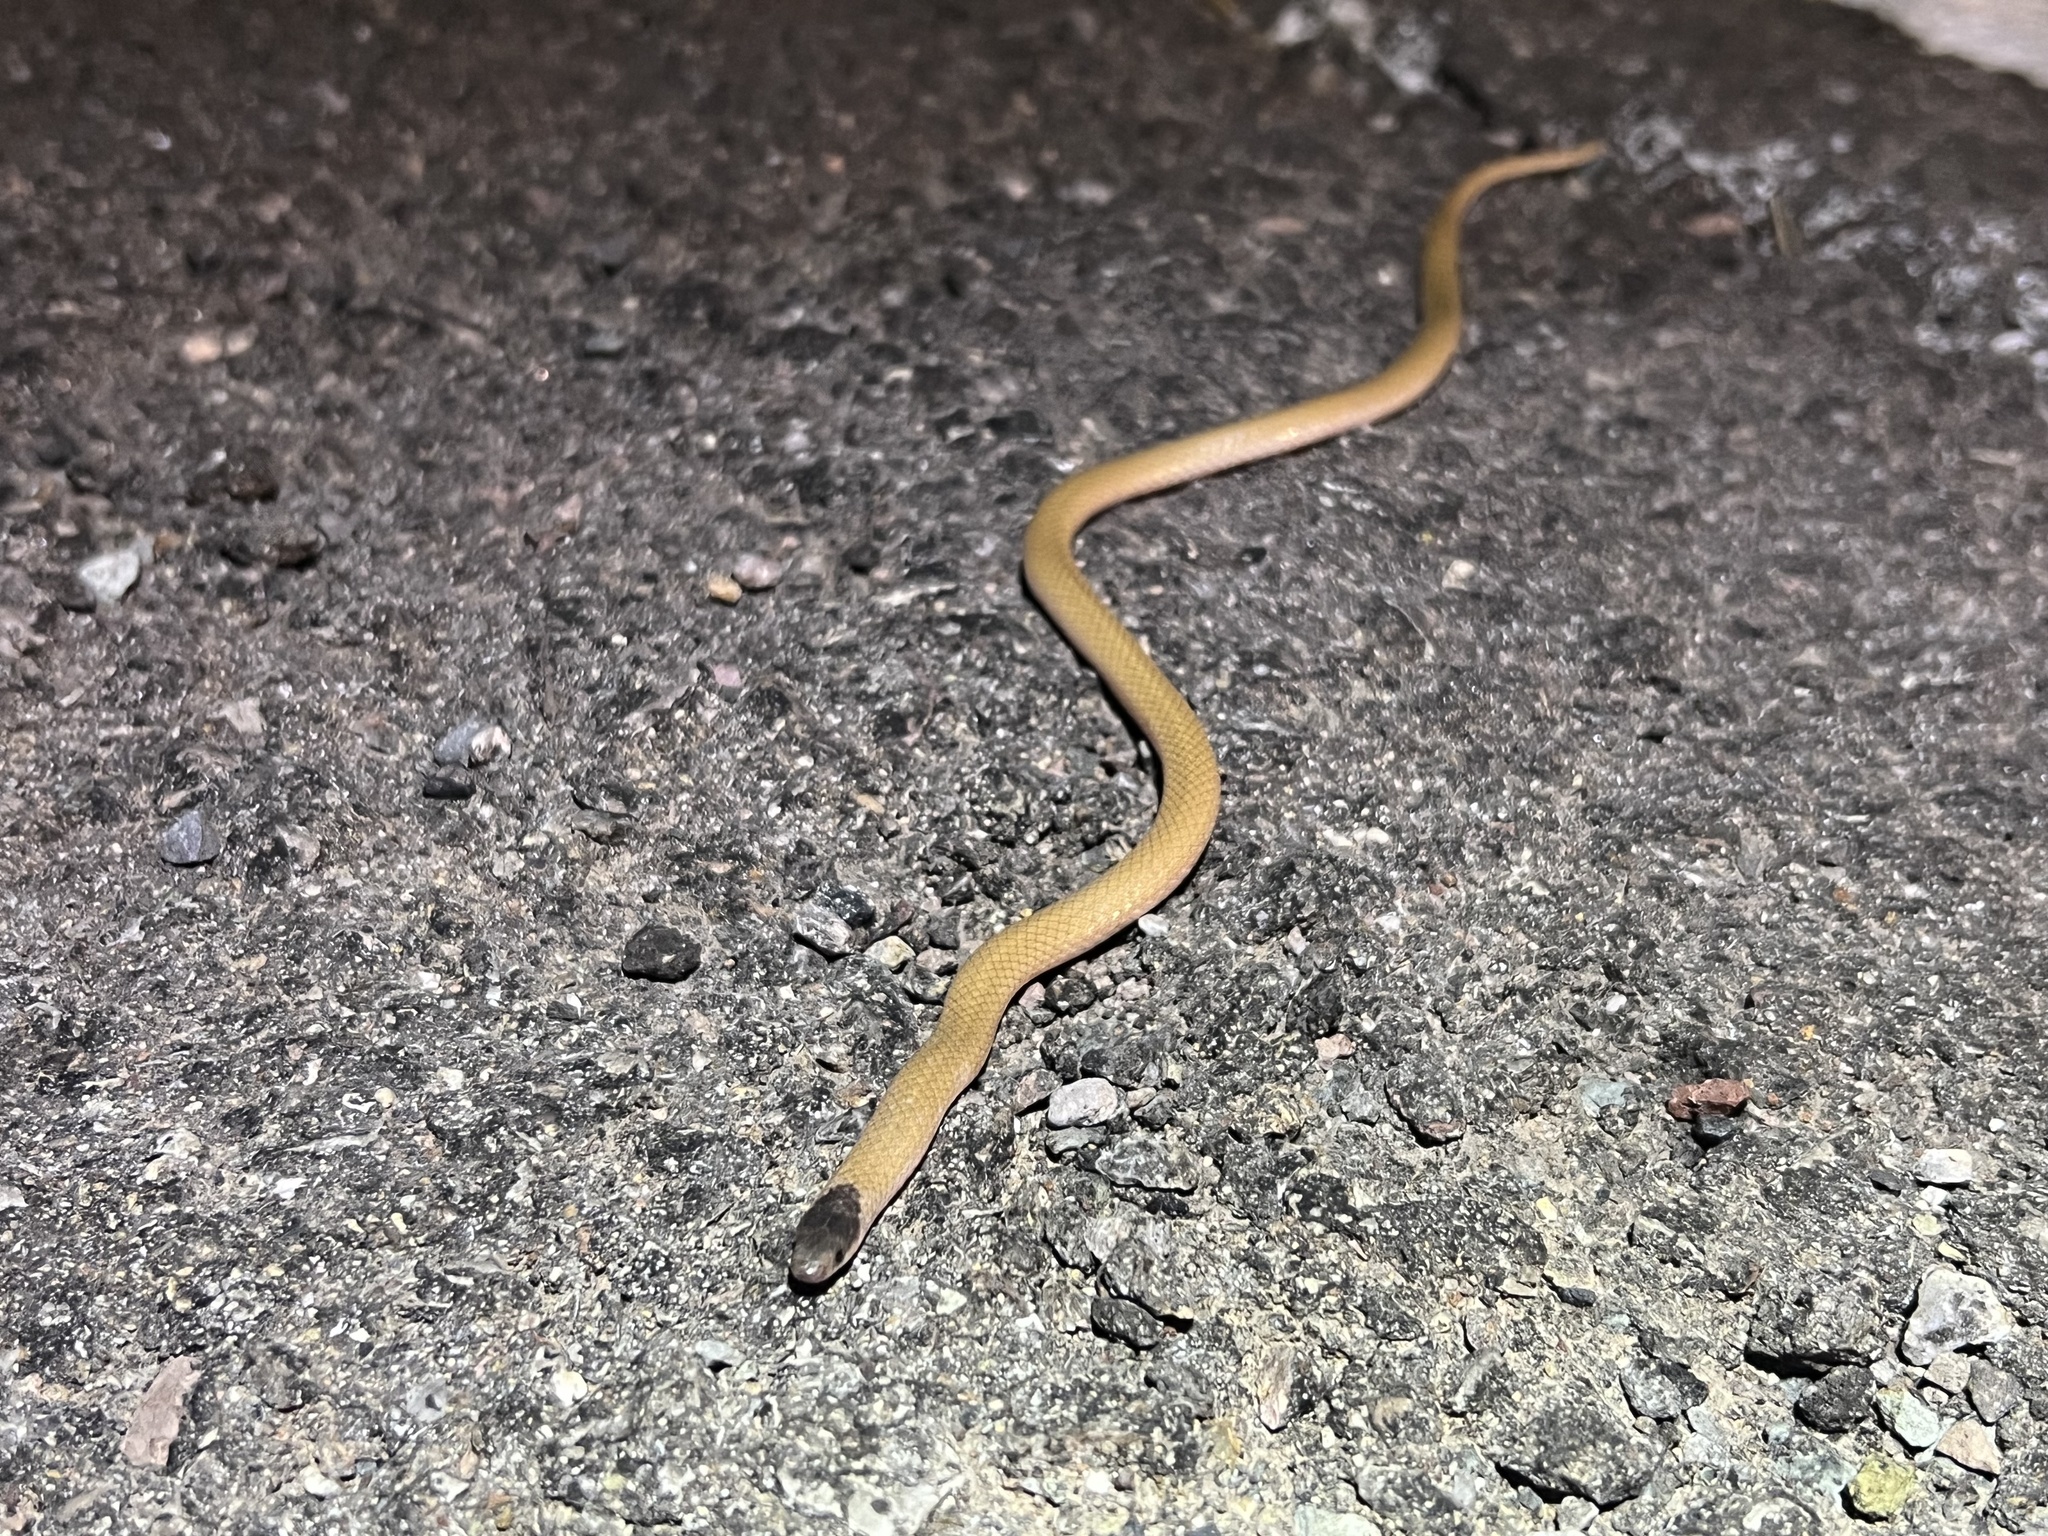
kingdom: Animalia
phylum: Chordata
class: Squamata
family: Colubridae
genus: Tantilla
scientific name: Tantilla nigriceps
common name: Plains blackhead snake
